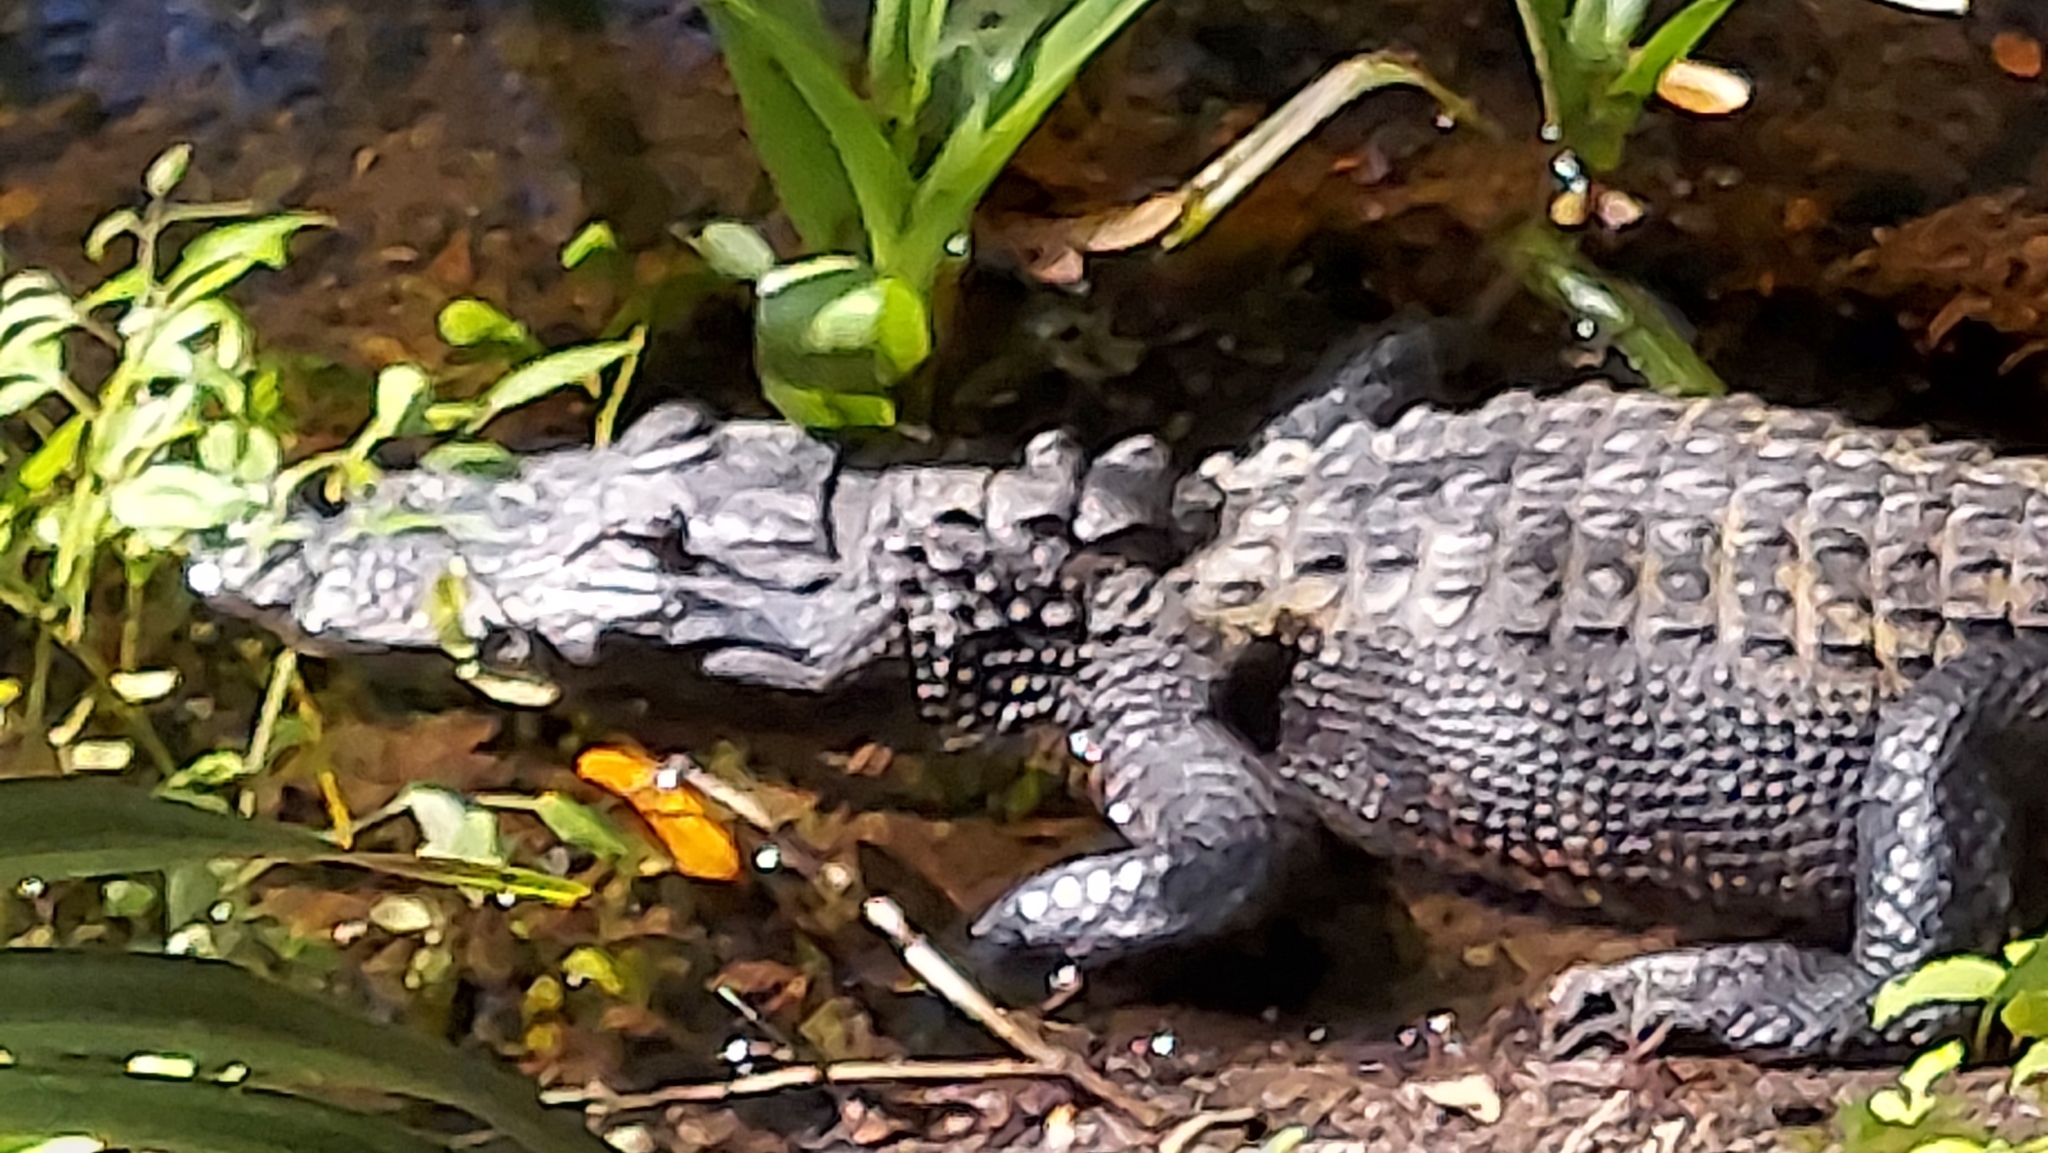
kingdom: Animalia
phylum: Chordata
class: Crocodylia
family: Alligatoridae
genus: Alligator
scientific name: Alligator mississippiensis
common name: American alligator
